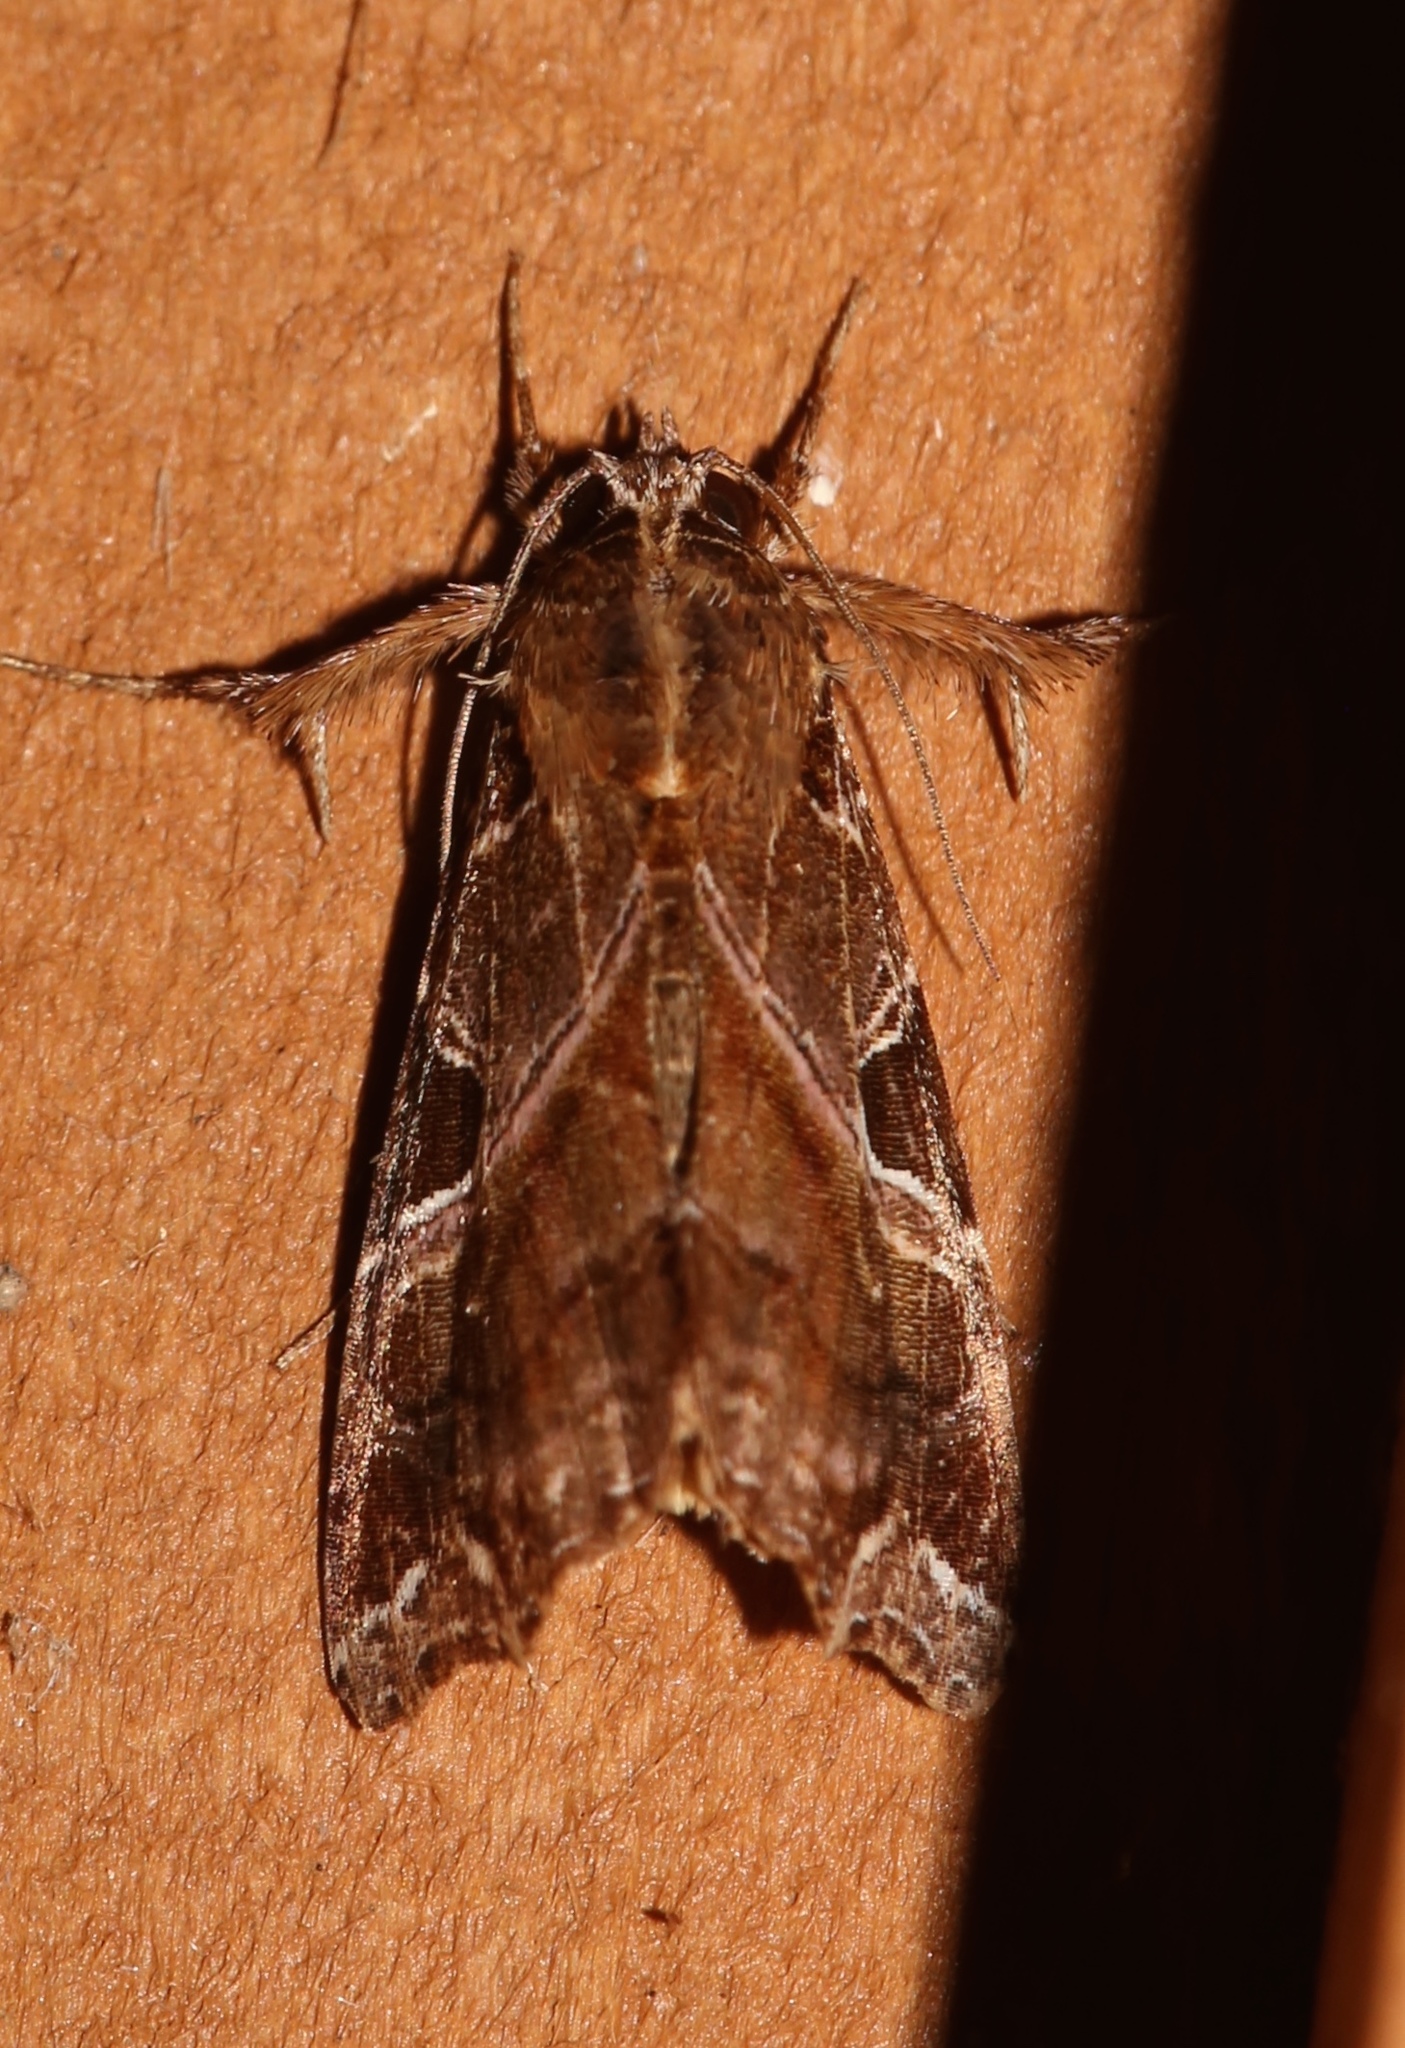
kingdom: Animalia
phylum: Arthropoda
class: Insecta
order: Lepidoptera
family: Noctuidae
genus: Callopistria
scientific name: Callopistria floridensis
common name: Florida fern moth
